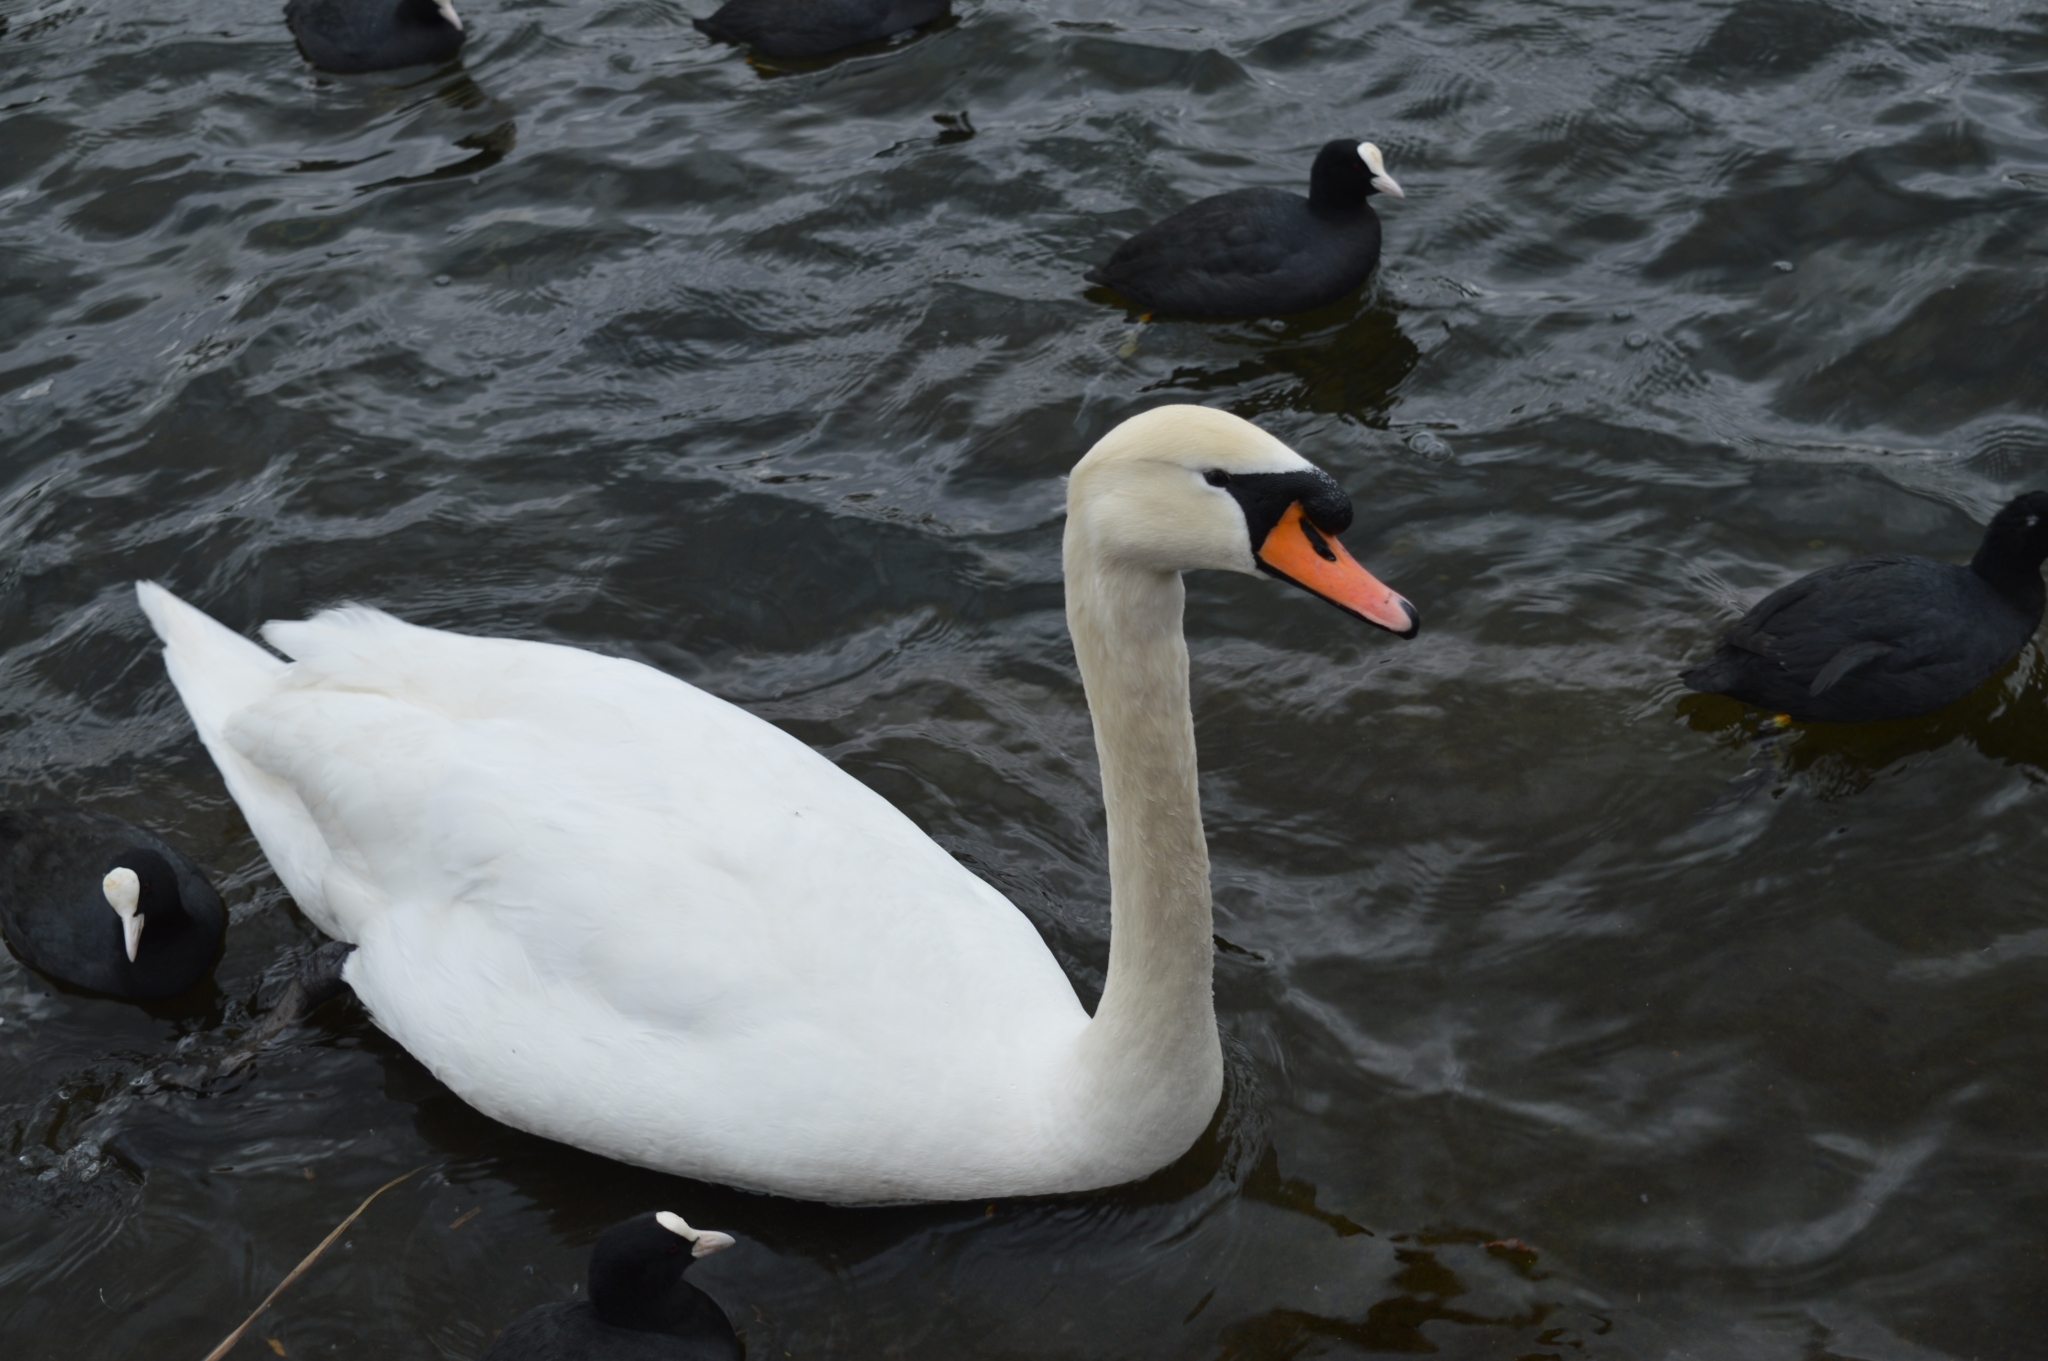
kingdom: Animalia
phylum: Chordata
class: Aves
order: Anseriformes
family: Anatidae
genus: Cygnus
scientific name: Cygnus olor
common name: Mute swan
